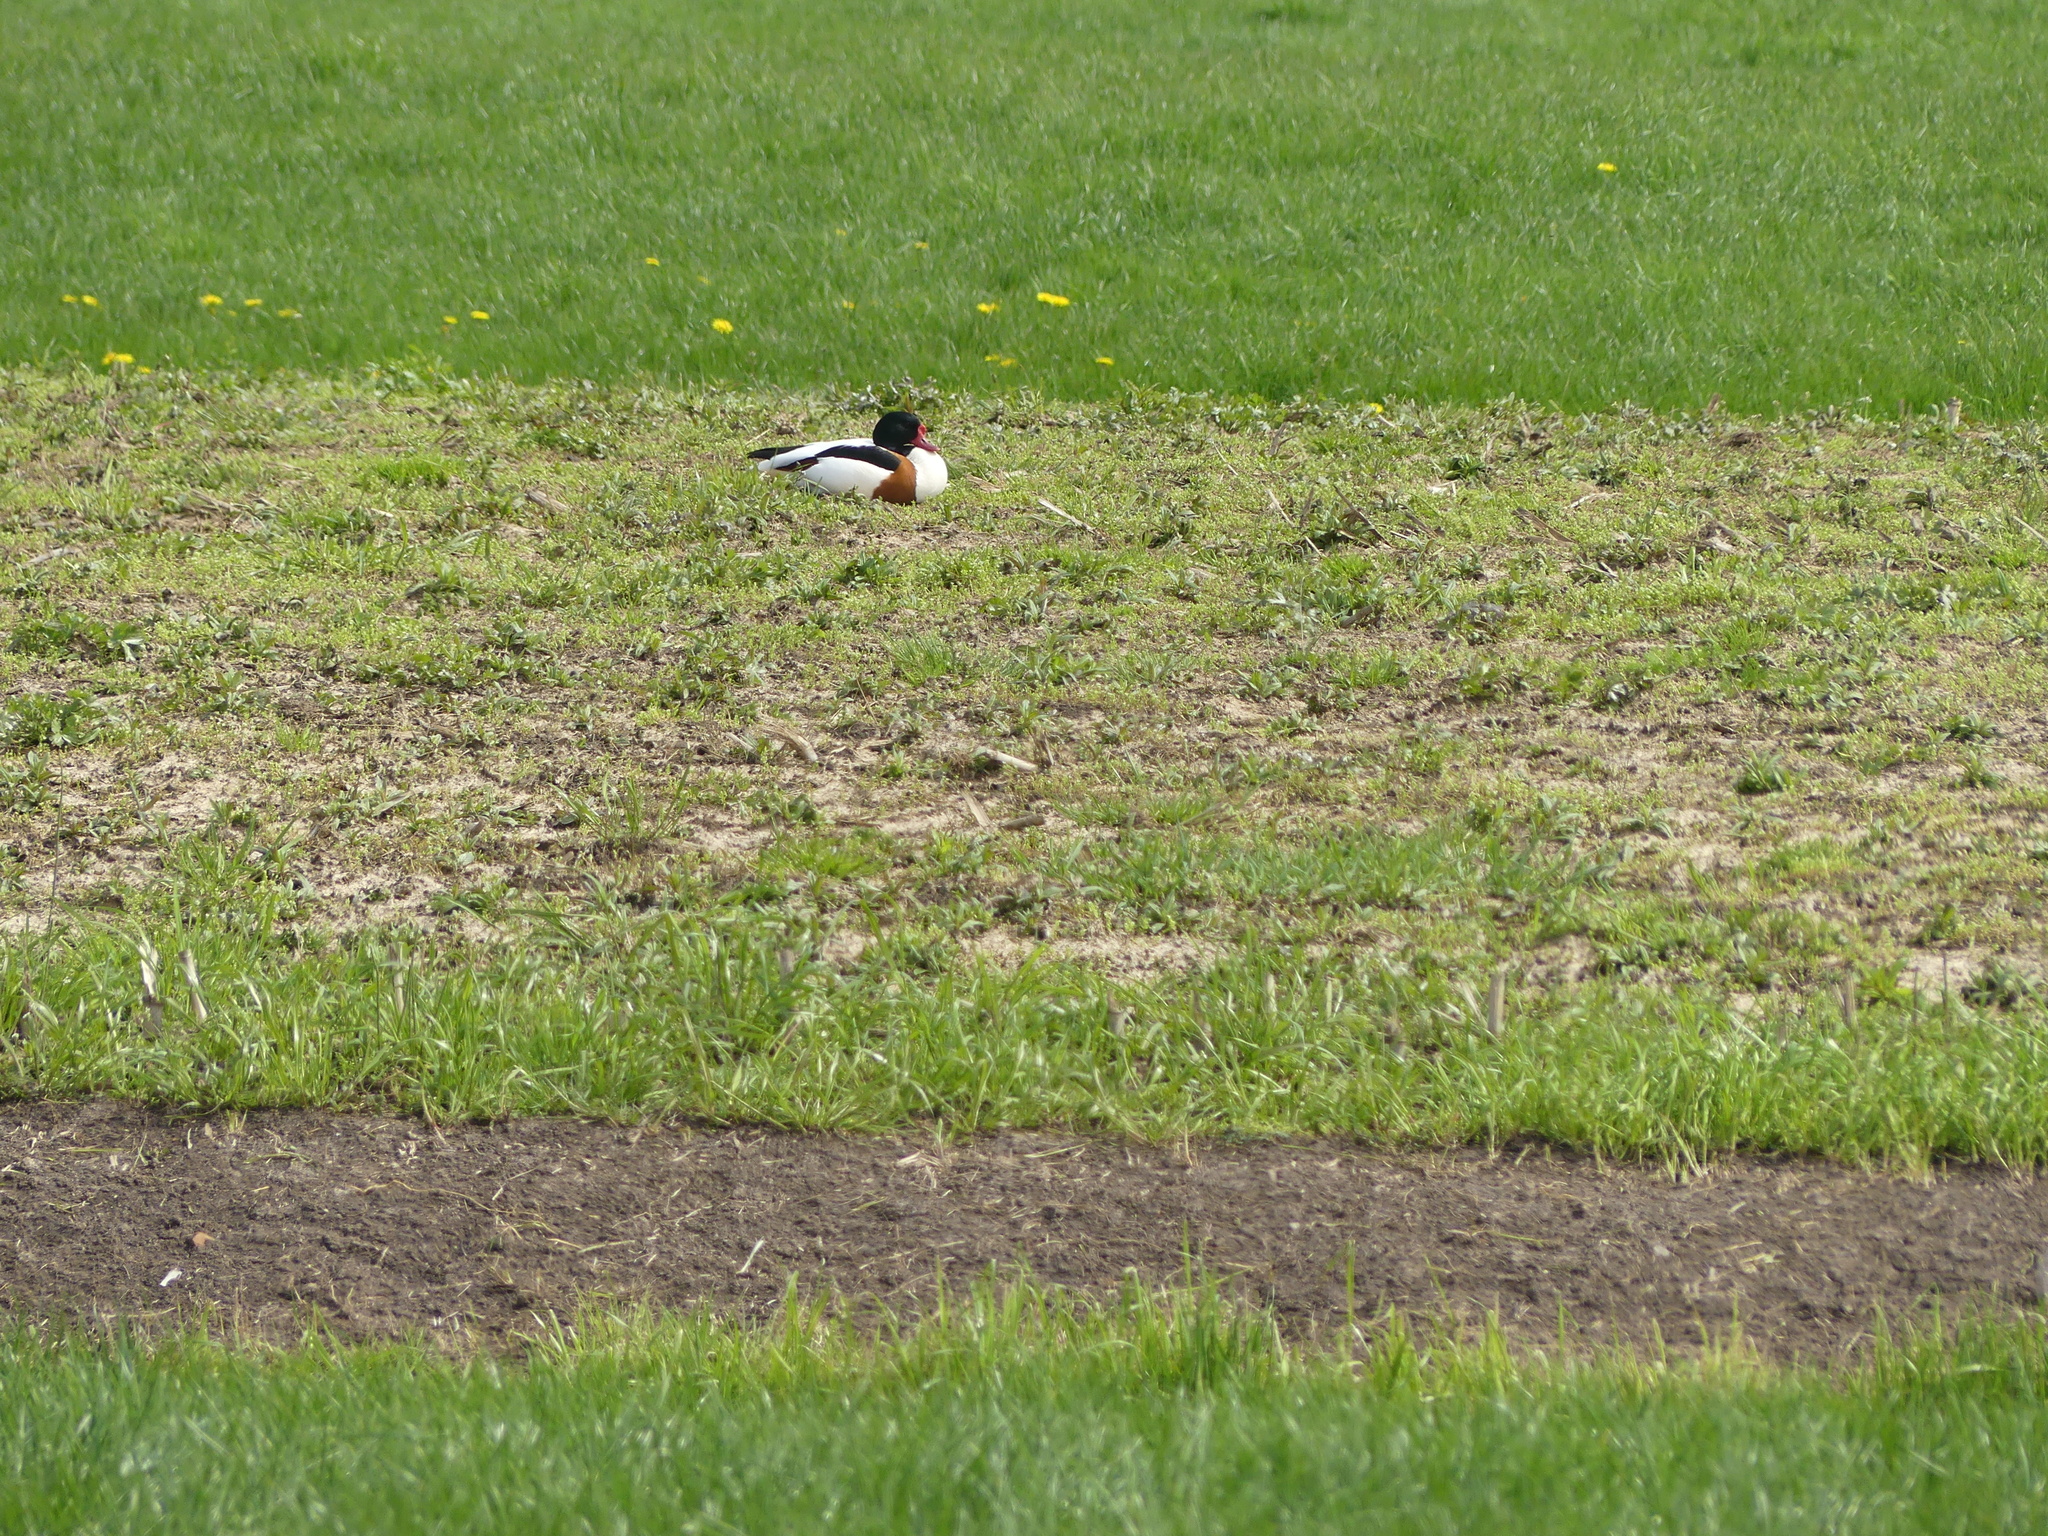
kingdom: Animalia
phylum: Chordata
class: Aves
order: Anseriformes
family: Anatidae
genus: Tadorna
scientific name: Tadorna tadorna
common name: Common shelduck
